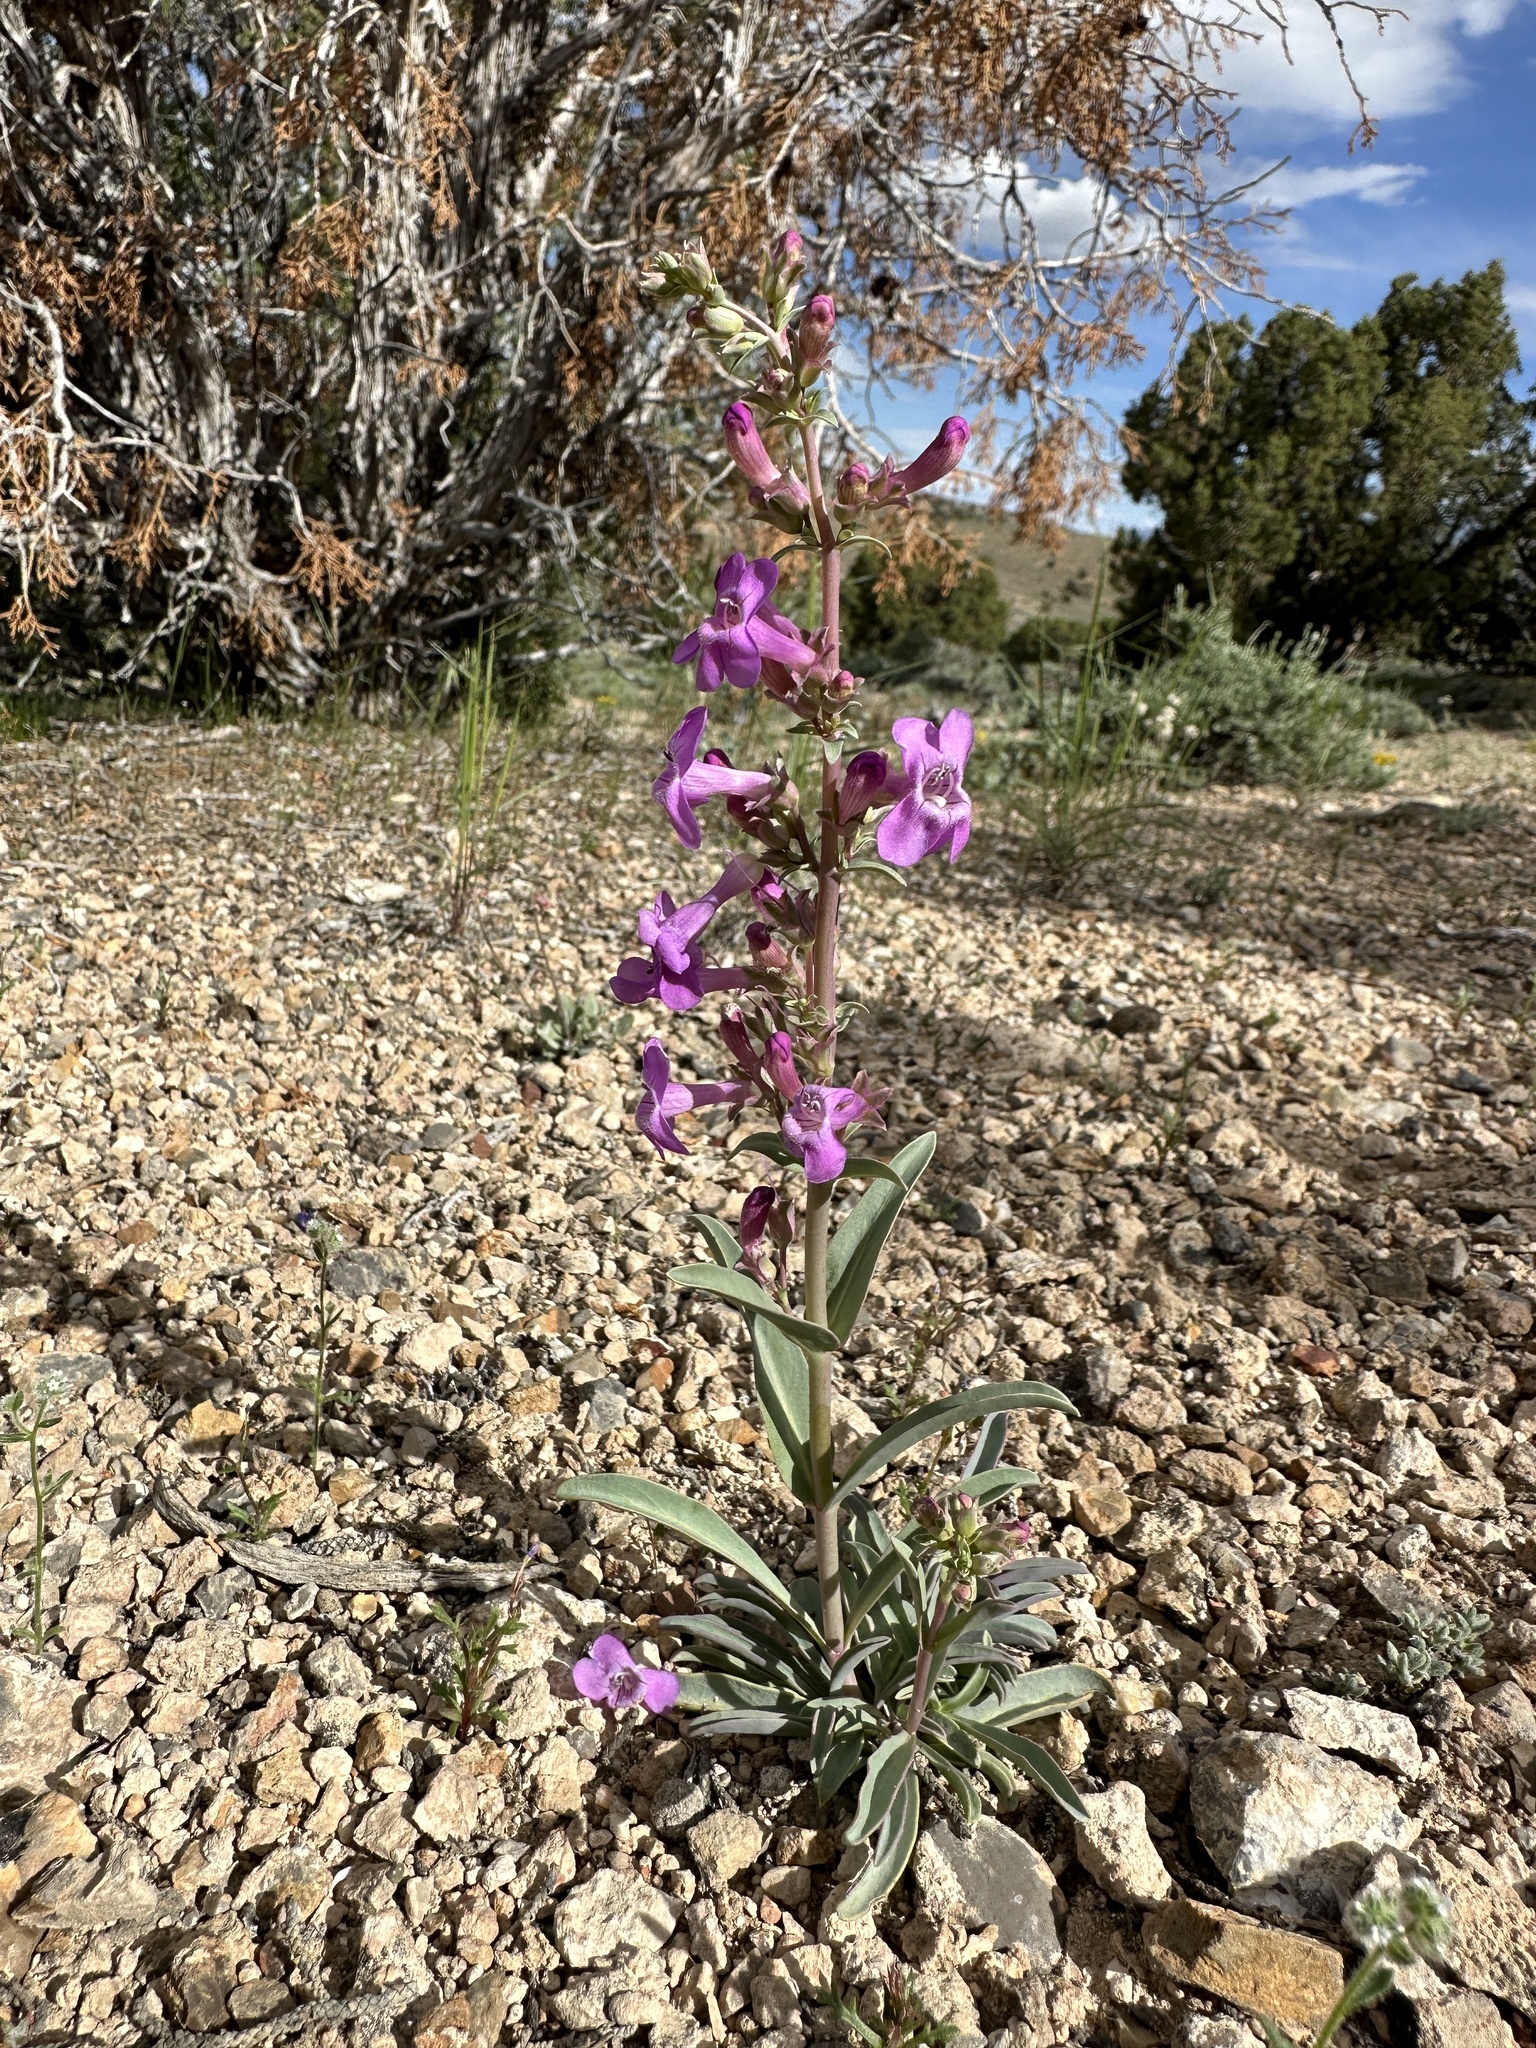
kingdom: Plantae
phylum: Tracheophyta
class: Magnoliopsida
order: Lamiales
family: Plantaginaceae
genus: Penstemon
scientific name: Penstemon confusus
